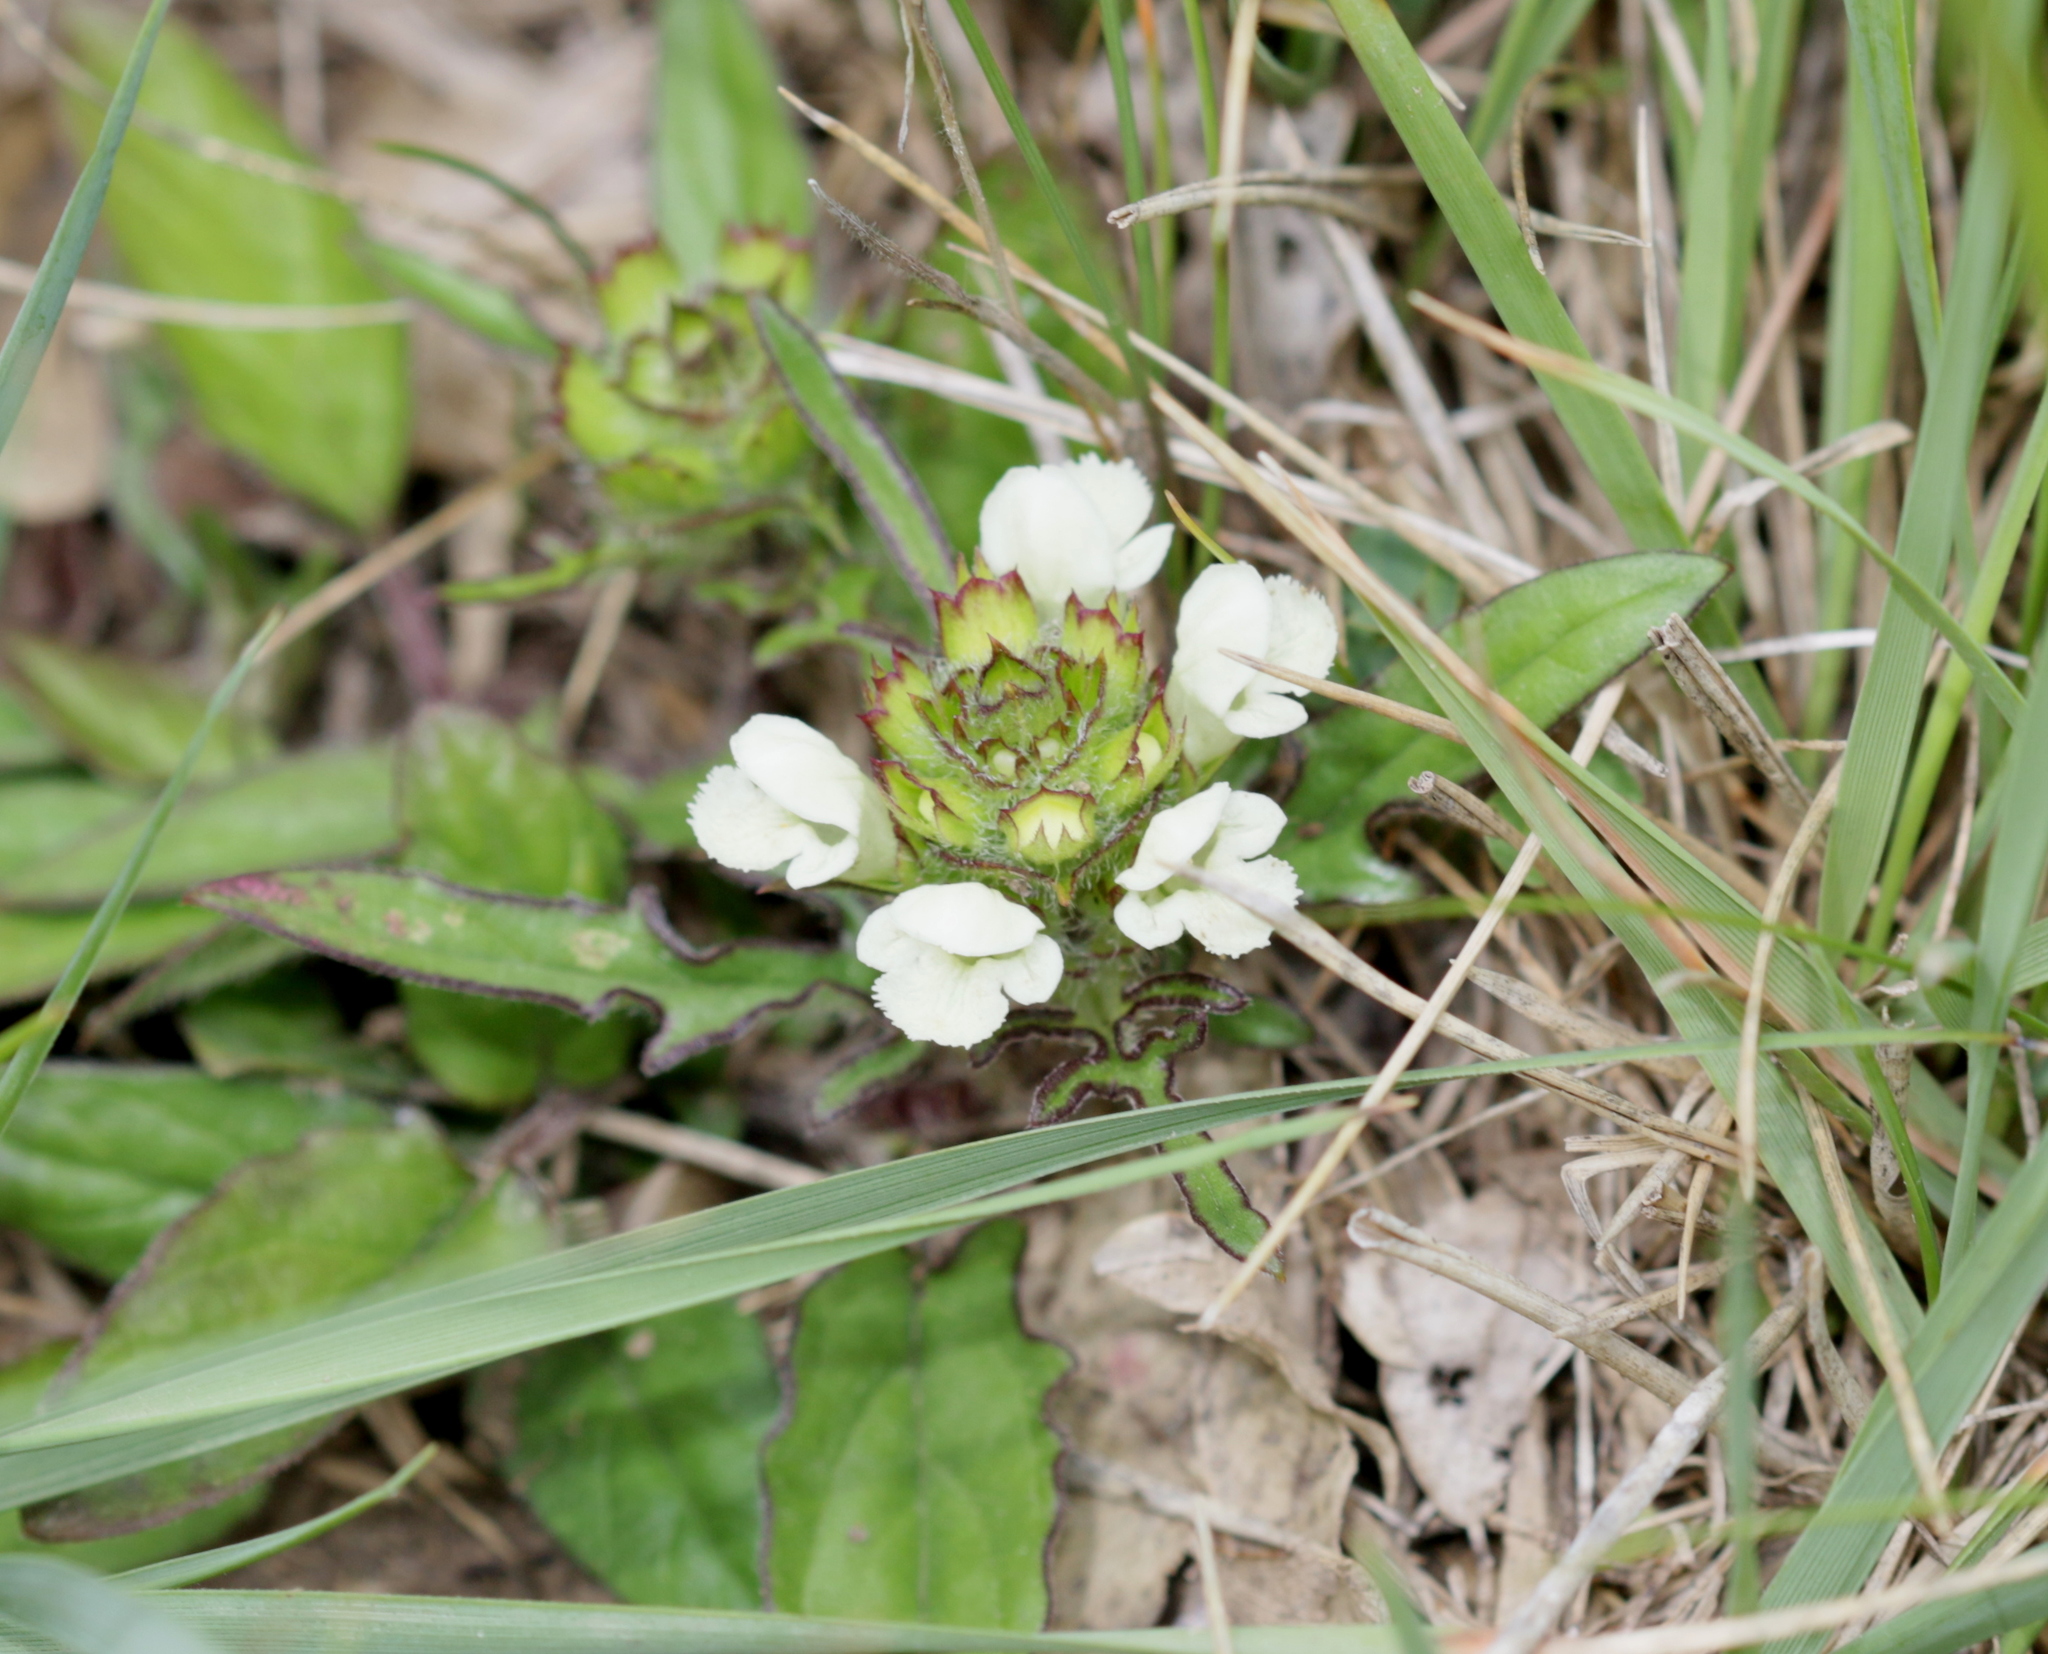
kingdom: Plantae
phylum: Tracheophyta
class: Magnoliopsida
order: Lamiales
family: Lamiaceae
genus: Prunella
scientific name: Prunella laciniata
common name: Cut-leaved selfheal
